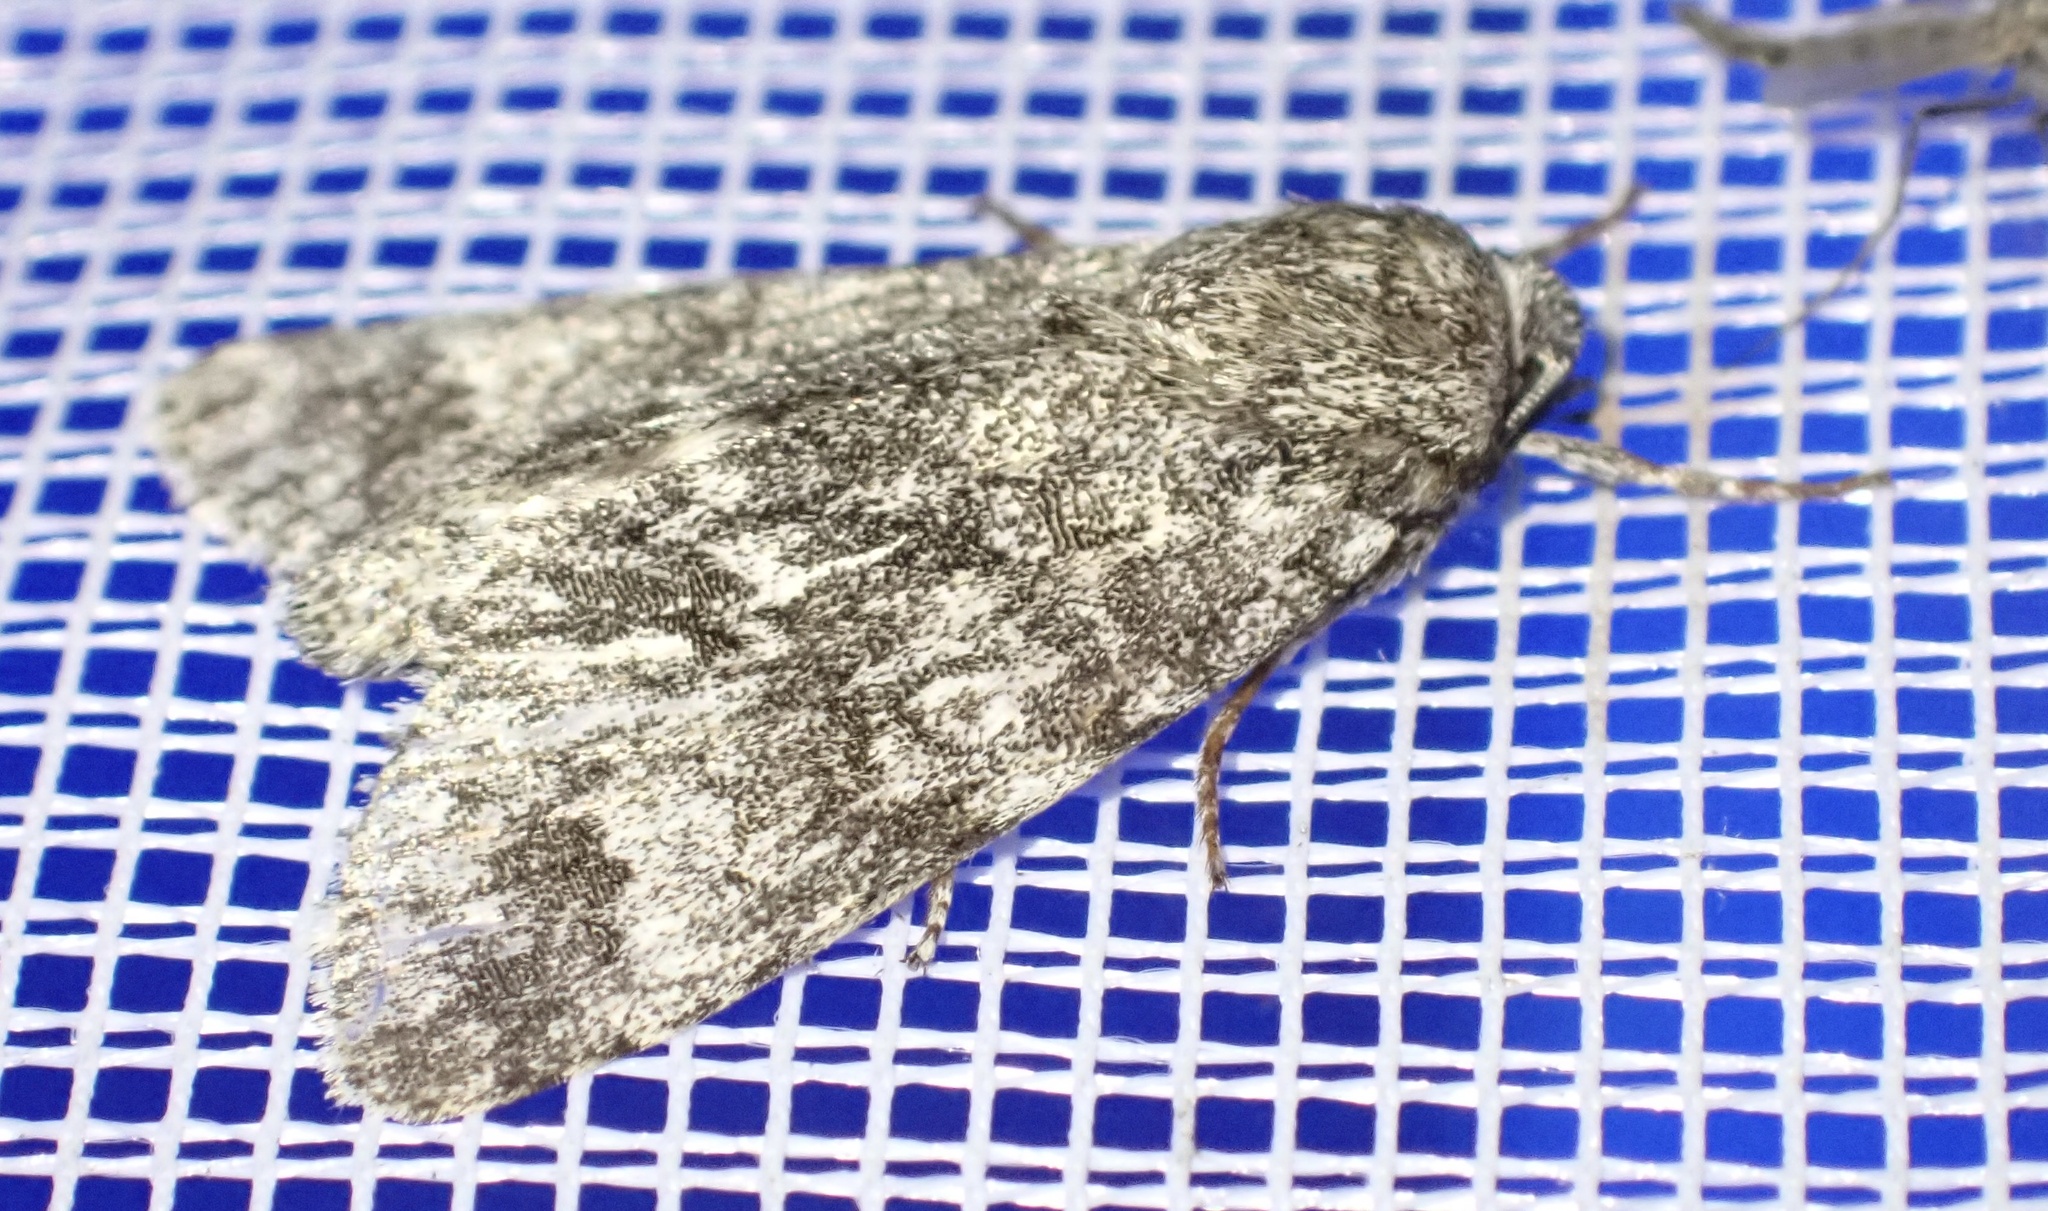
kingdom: Animalia
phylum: Arthropoda
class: Insecta
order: Lepidoptera
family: Noctuidae
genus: Acronicta
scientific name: Acronicta megacephala
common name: Poplar grey
